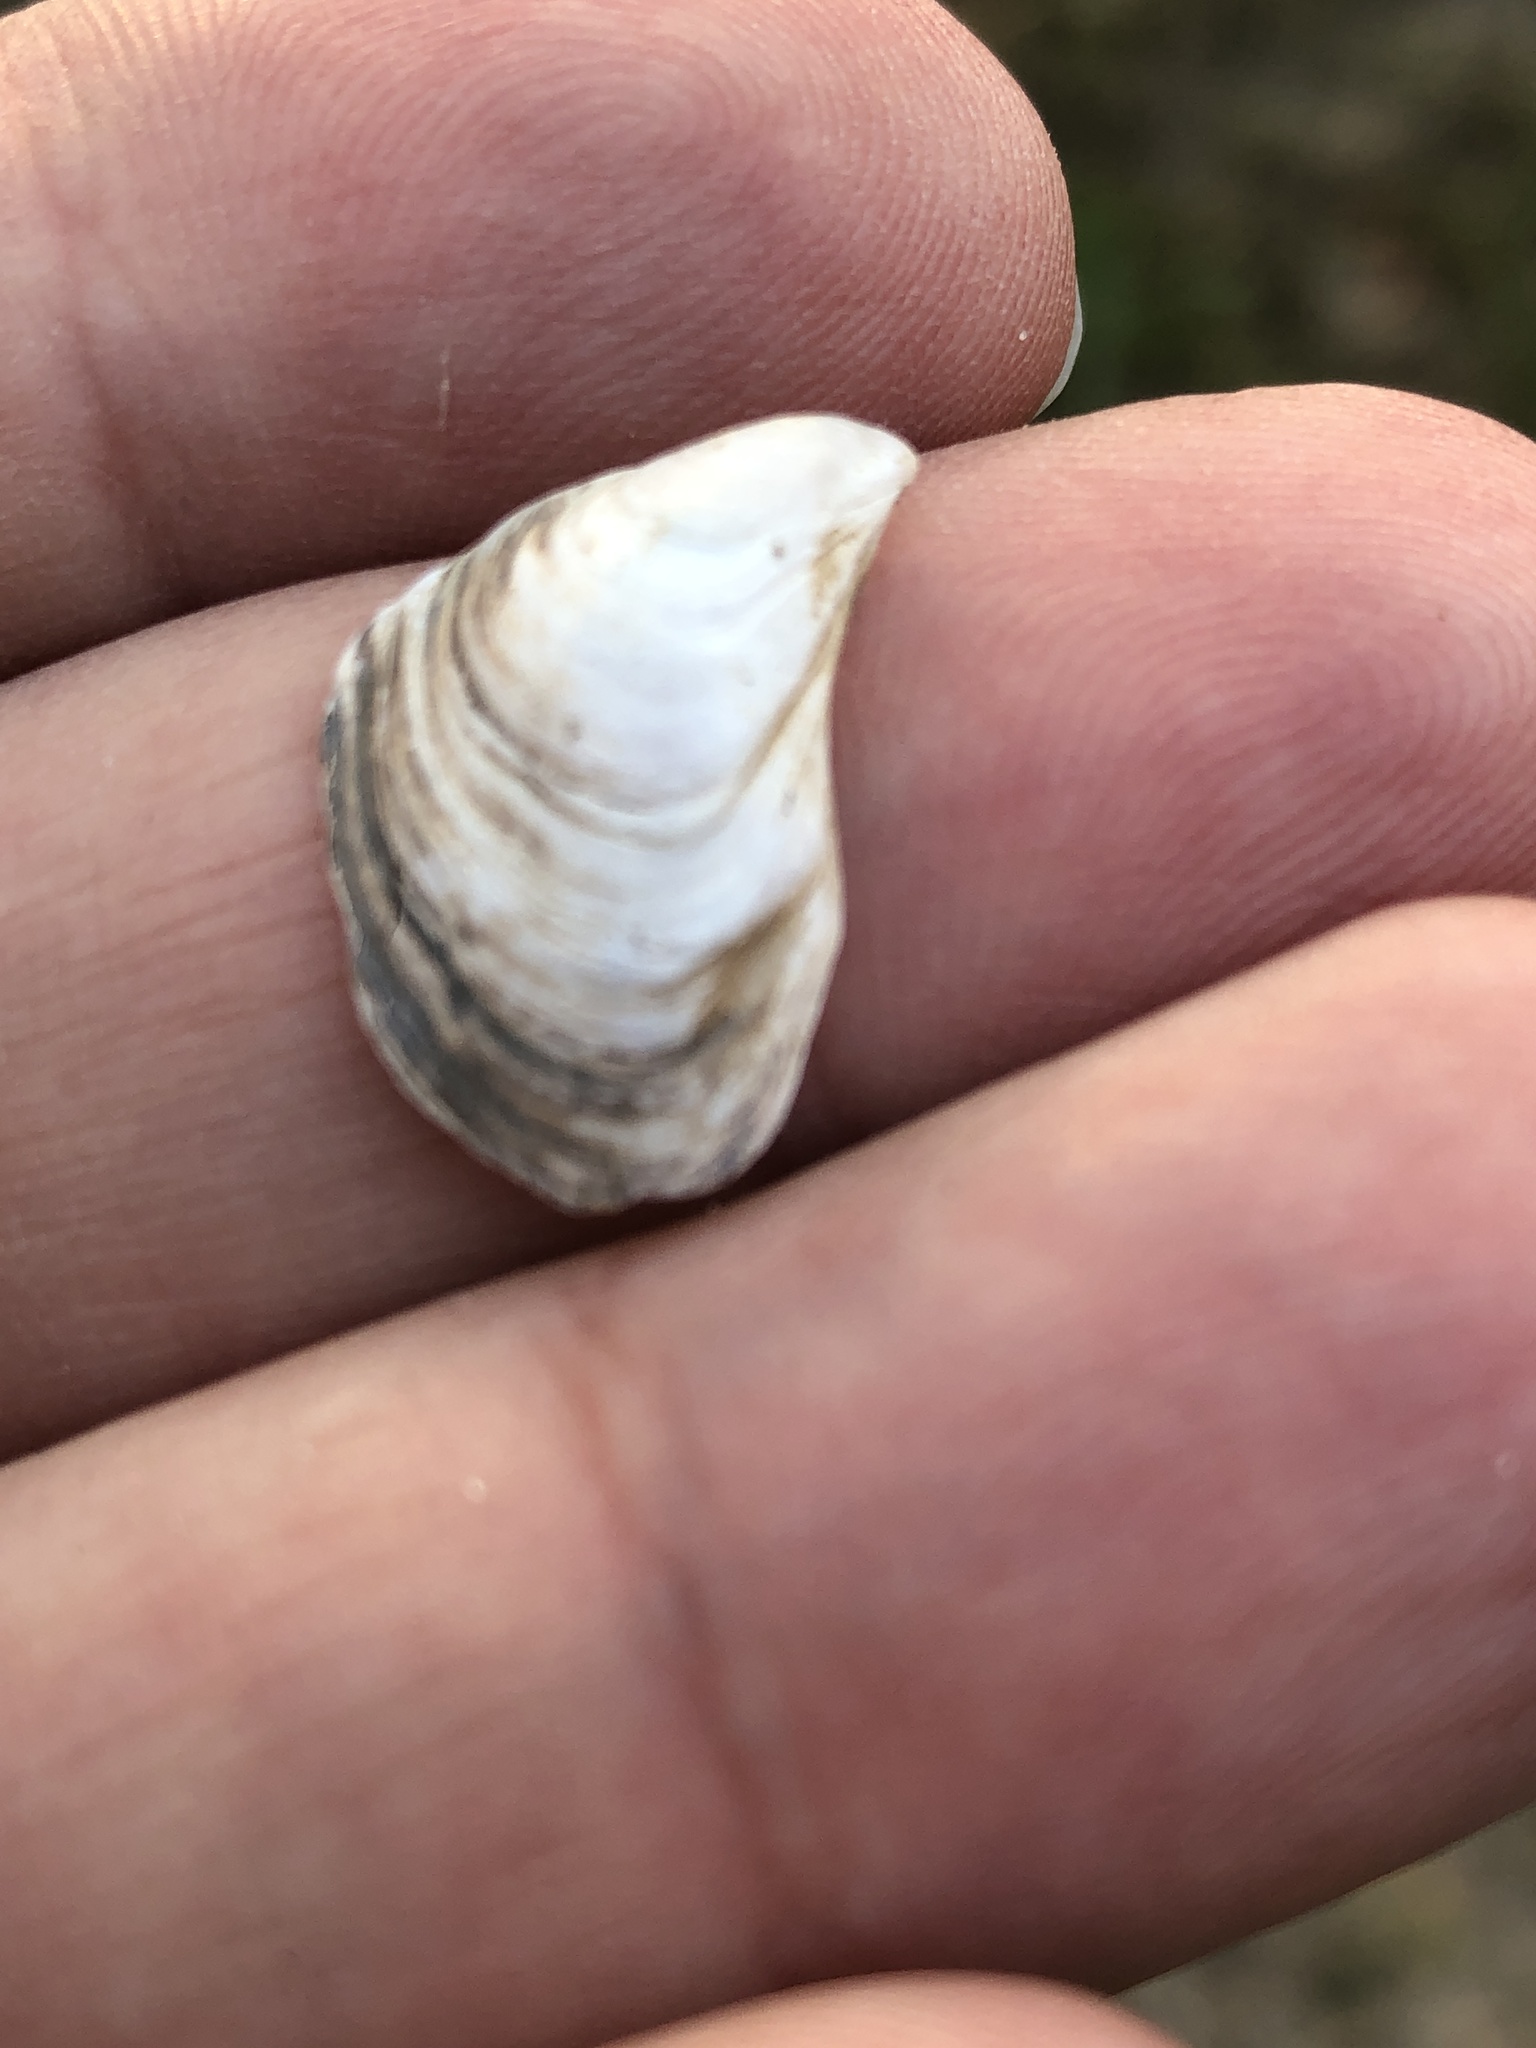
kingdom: Animalia
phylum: Mollusca
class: Bivalvia
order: Myida
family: Dreissenidae
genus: Dreissena
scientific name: Dreissena bugensis
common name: Quagga mussel
